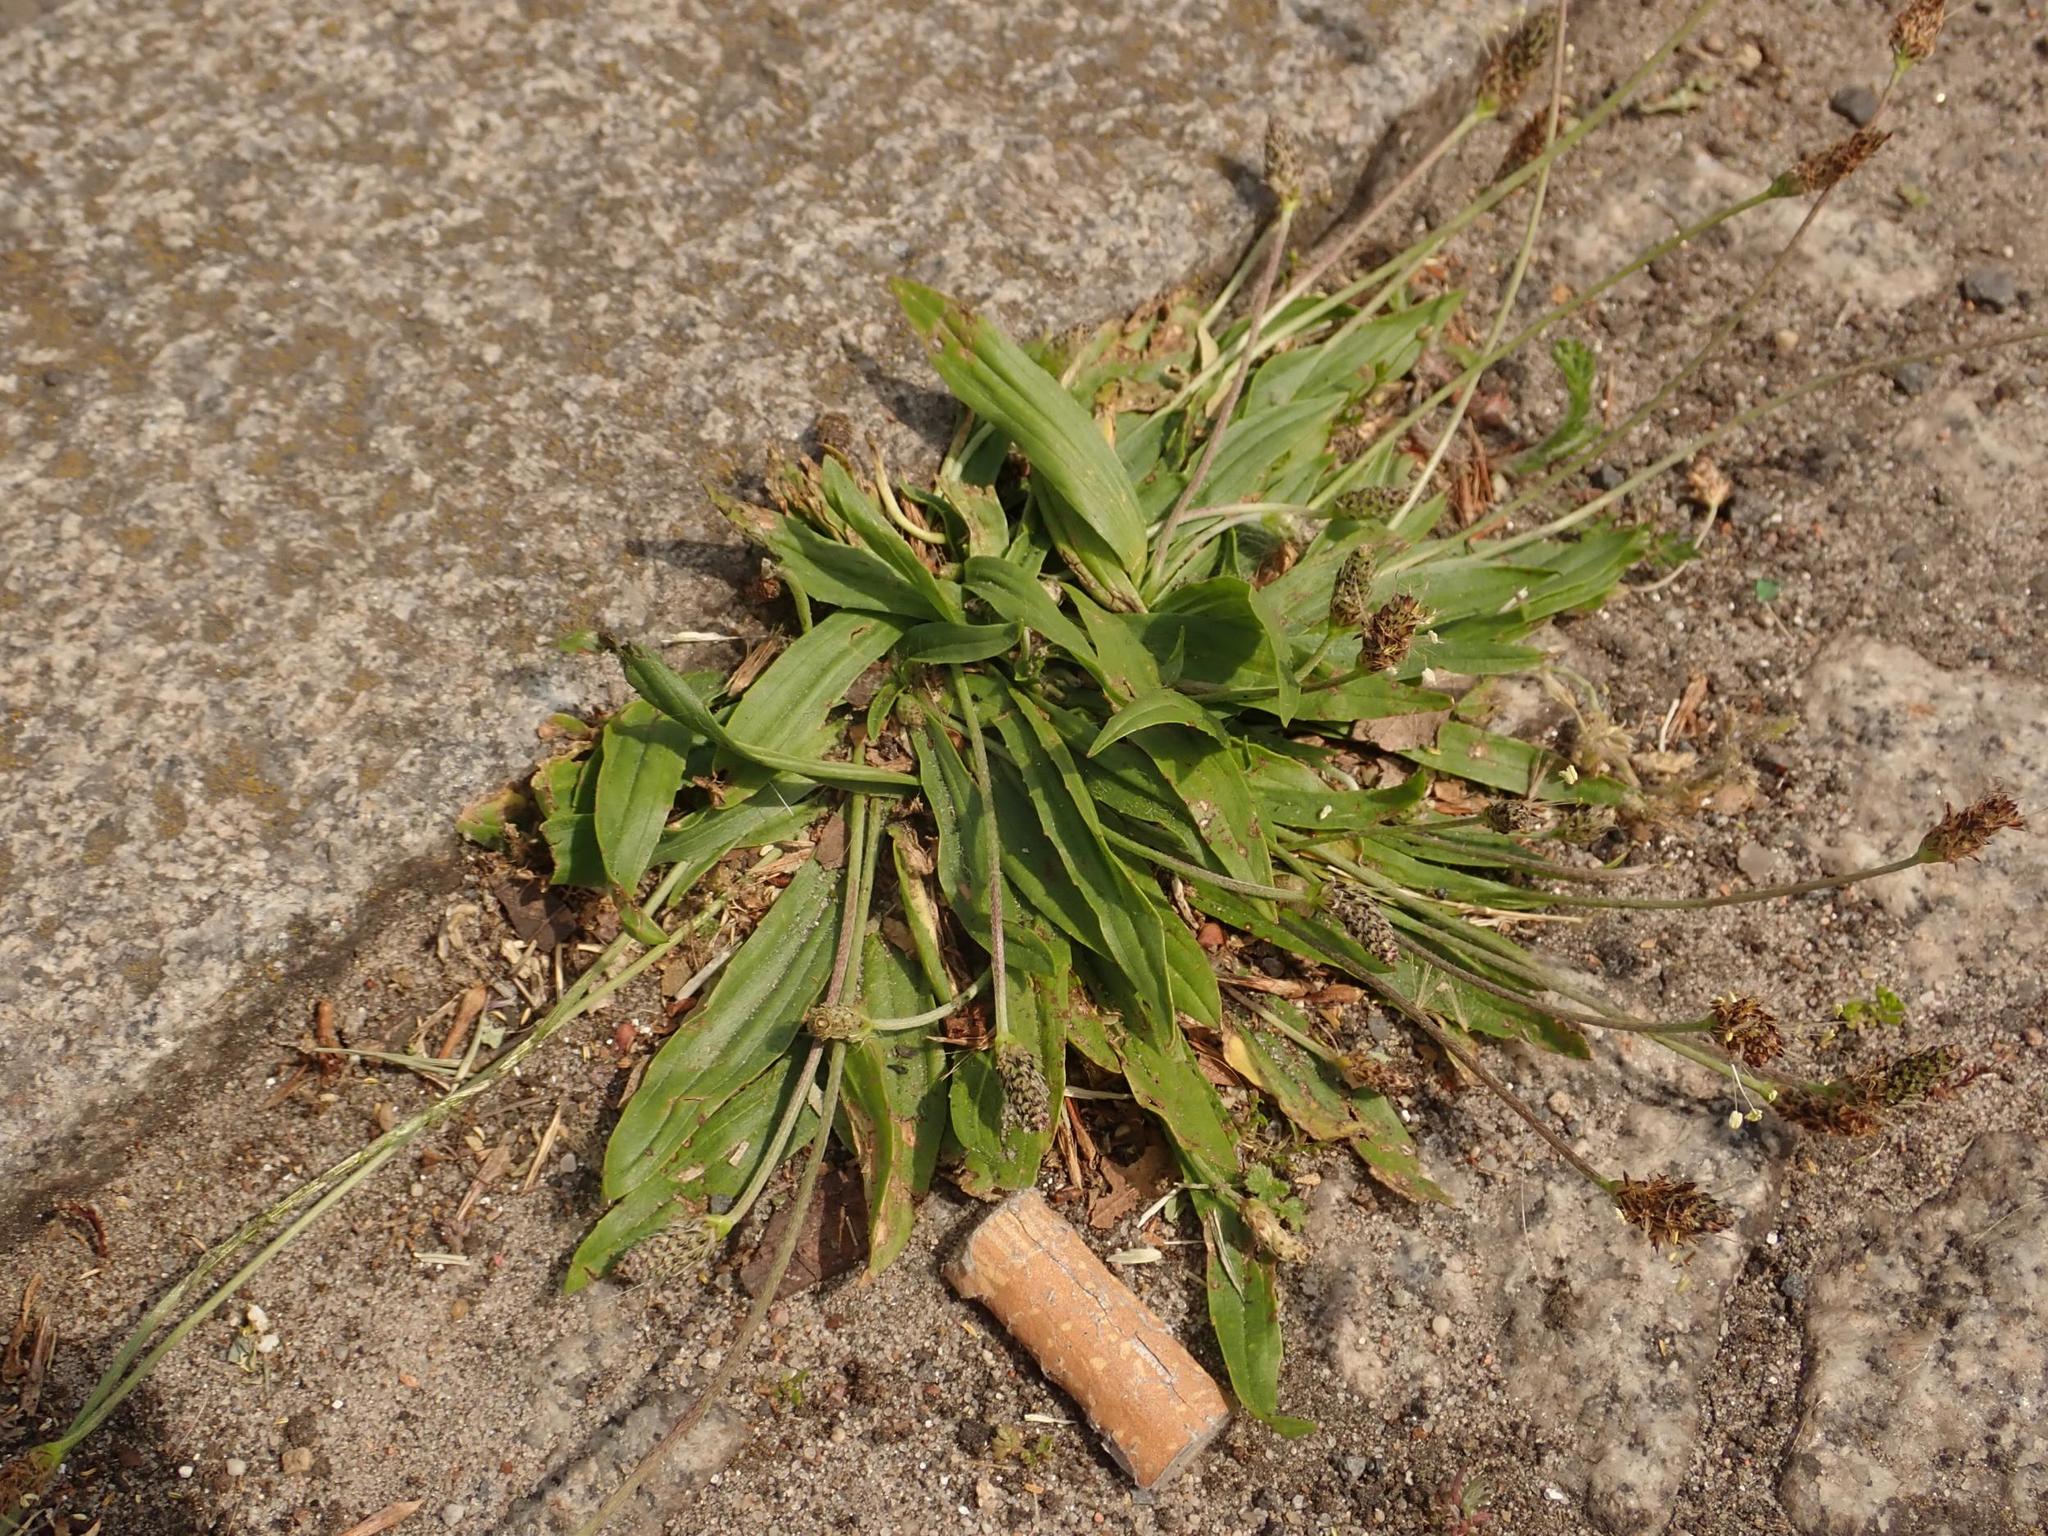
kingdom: Plantae
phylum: Tracheophyta
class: Magnoliopsida
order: Lamiales
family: Plantaginaceae
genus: Plantago
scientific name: Plantago lanceolata
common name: Ribwort plantain
